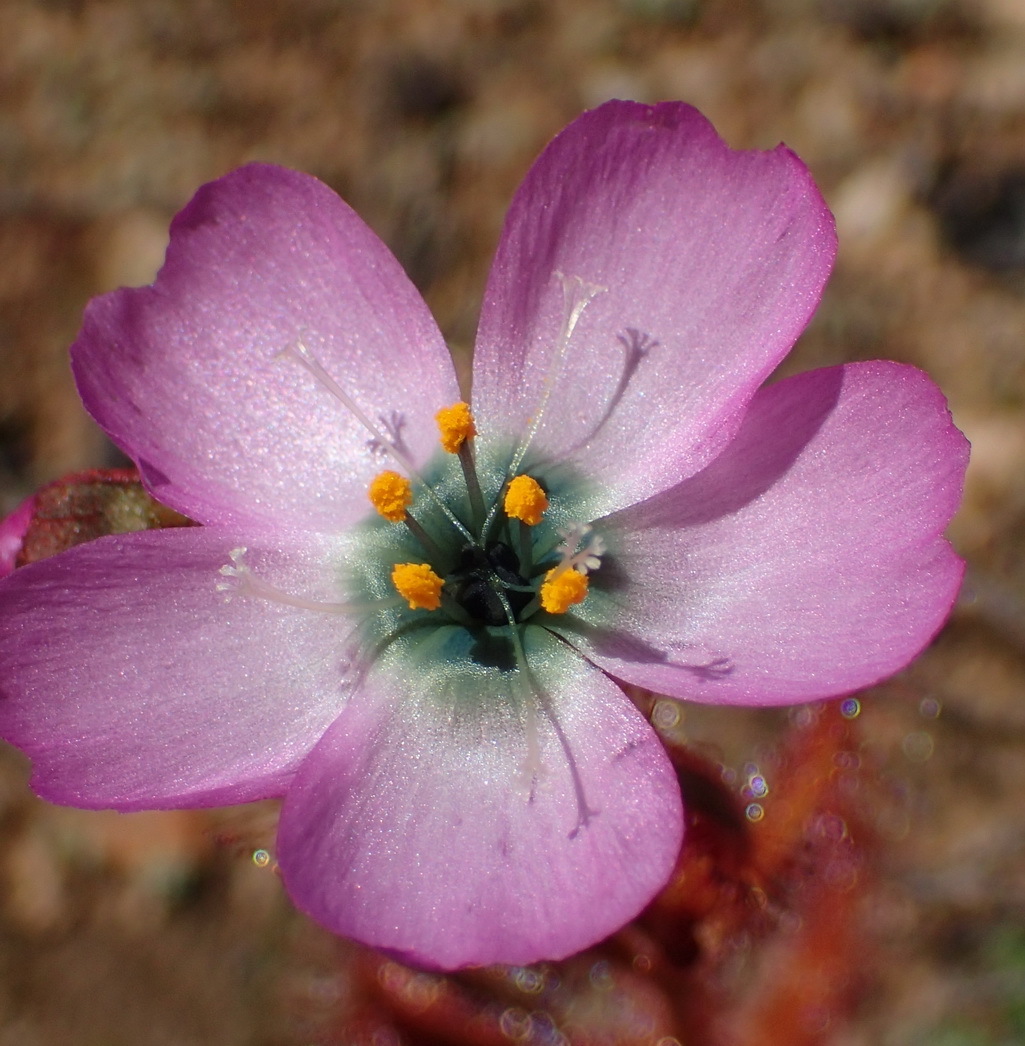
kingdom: Plantae
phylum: Tracheophyta
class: Magnoliopsida
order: Caryophyllales
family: Droseraceae
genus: Drosera
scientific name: Drosera cistiflora
